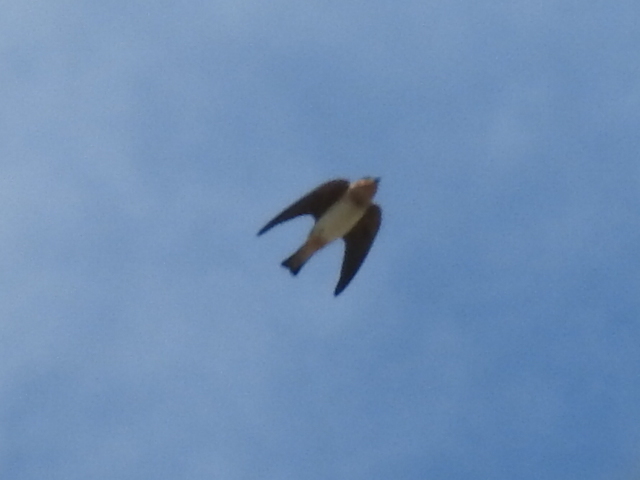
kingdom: Animalia
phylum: Chordata
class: Aves
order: Passeriformes
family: Hirundinidae
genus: Petrochelidon
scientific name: Petrochelidon fulva
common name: Cave swallow
